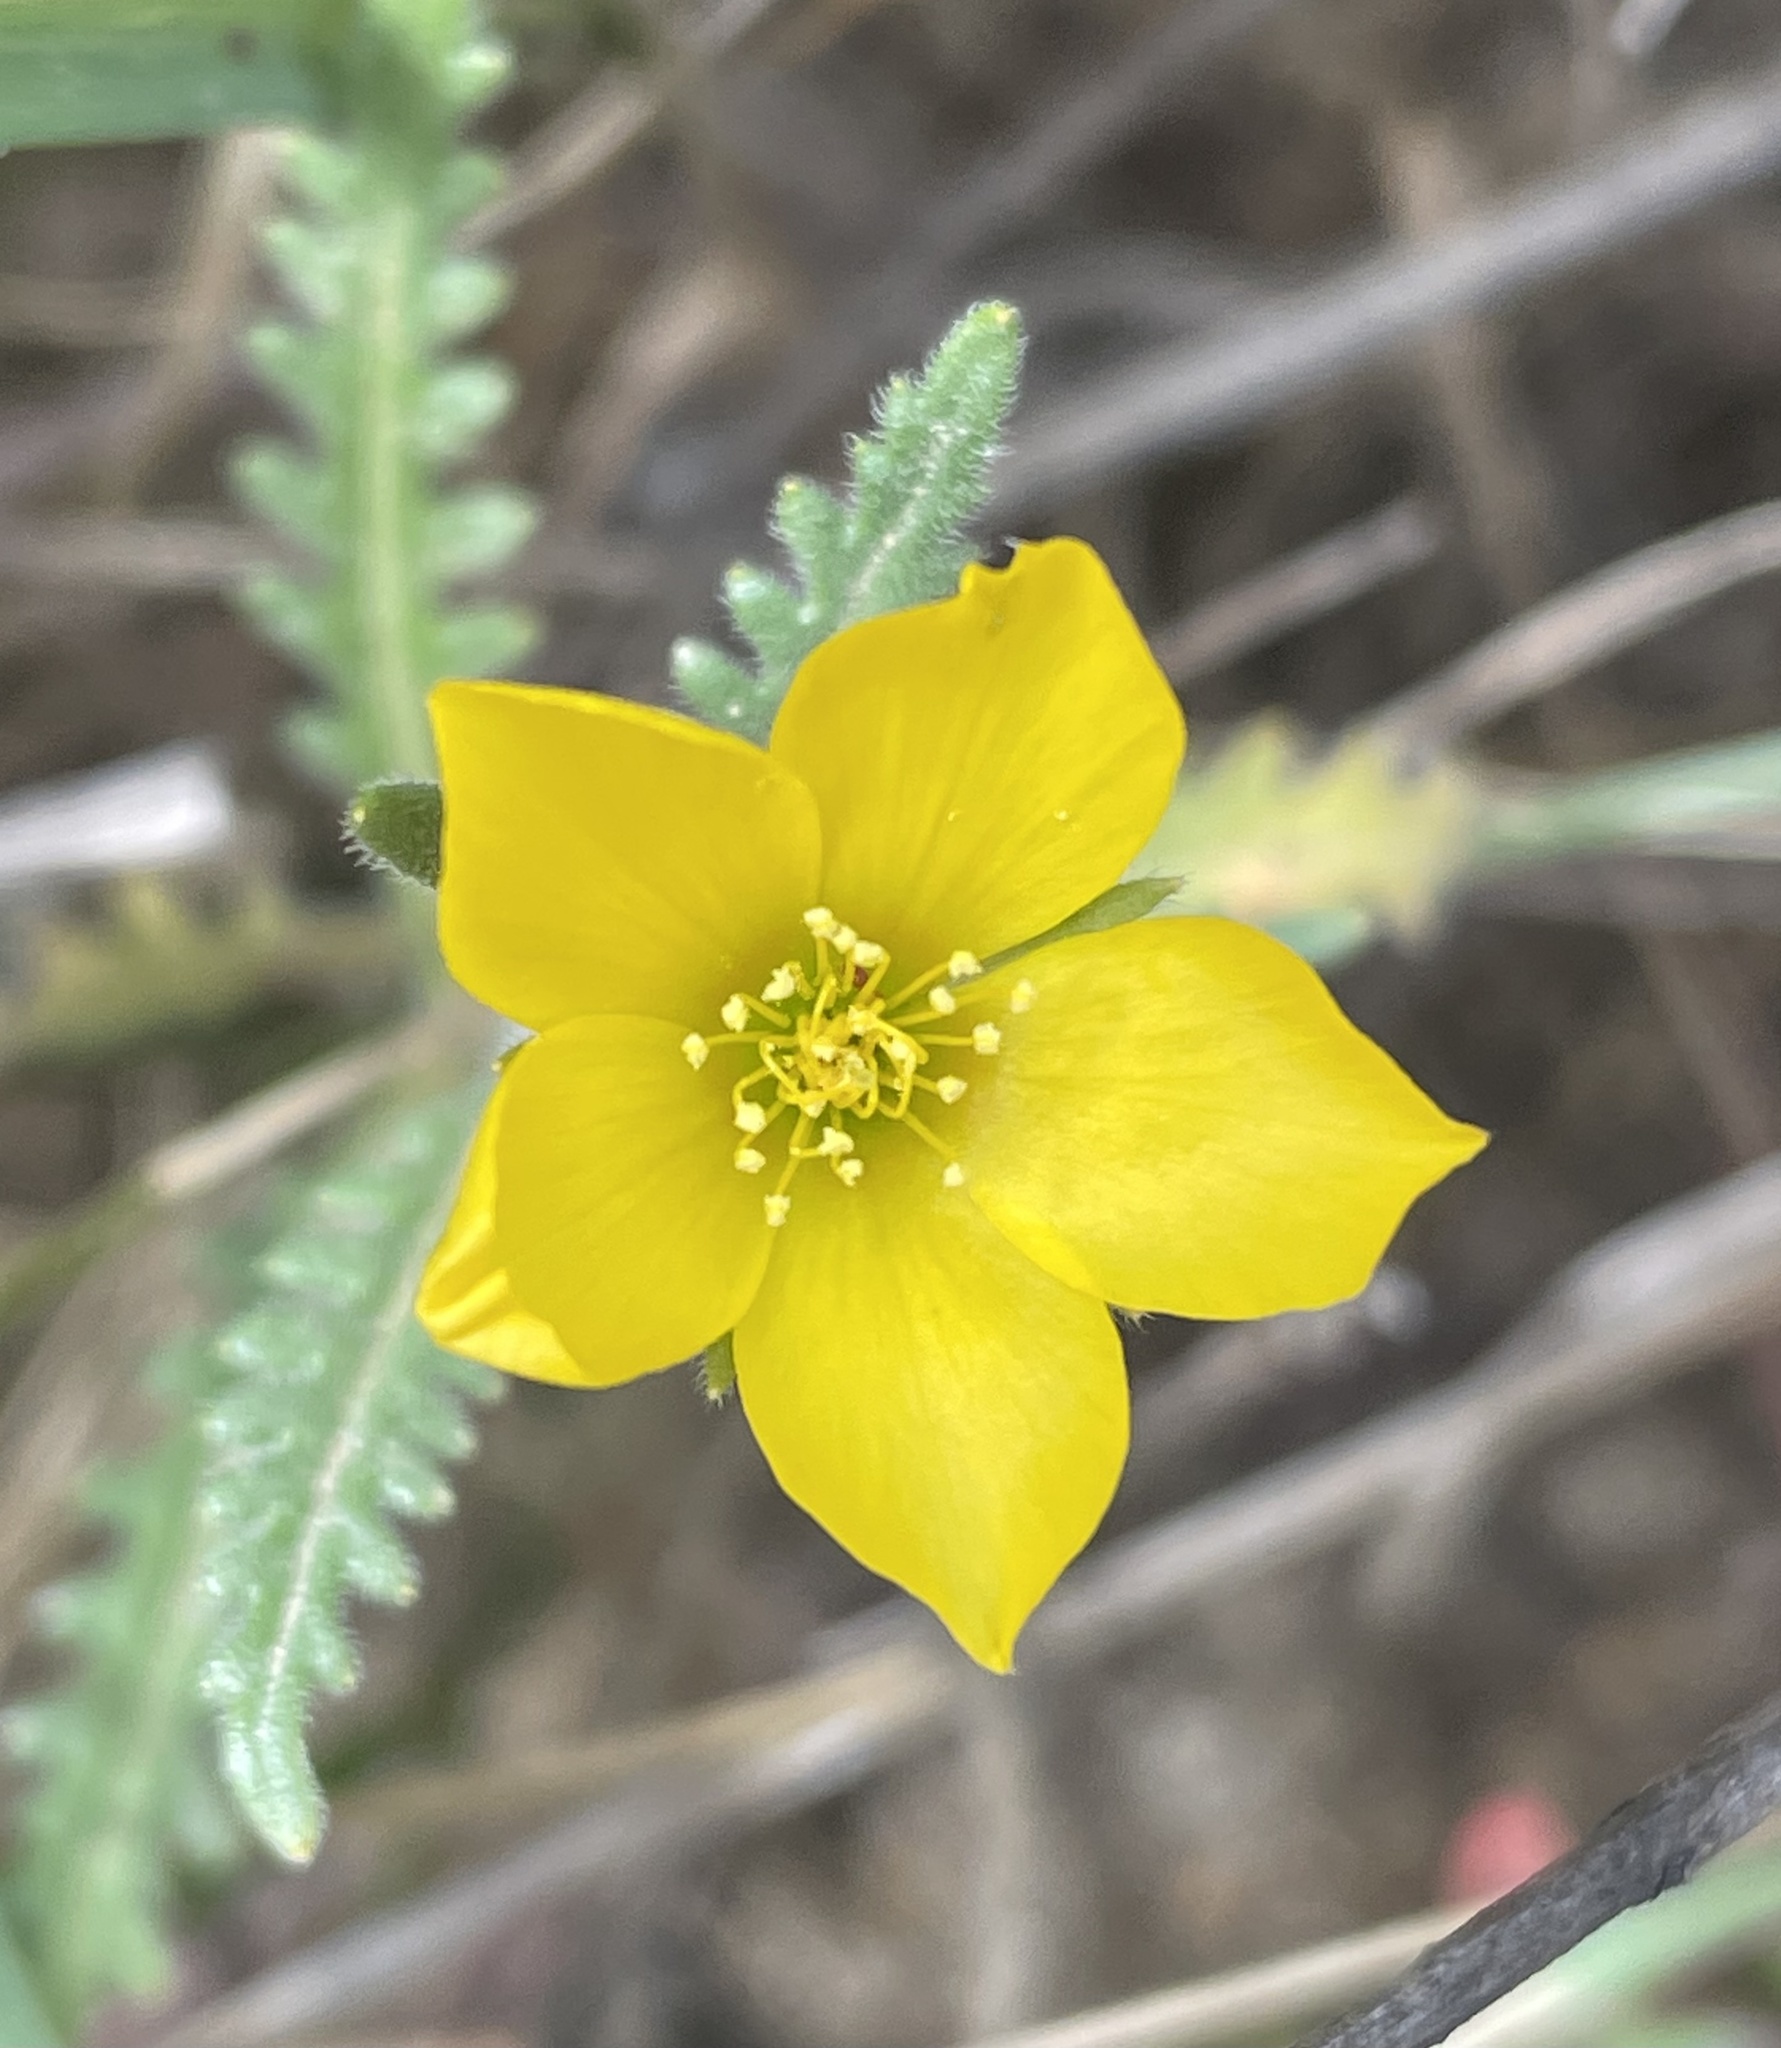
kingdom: Plantae
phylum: Tracheophyta
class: Magnoliopsida
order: Cornales
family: Loasaceae
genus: Mentzelia
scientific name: Mentzelia gracilenta
